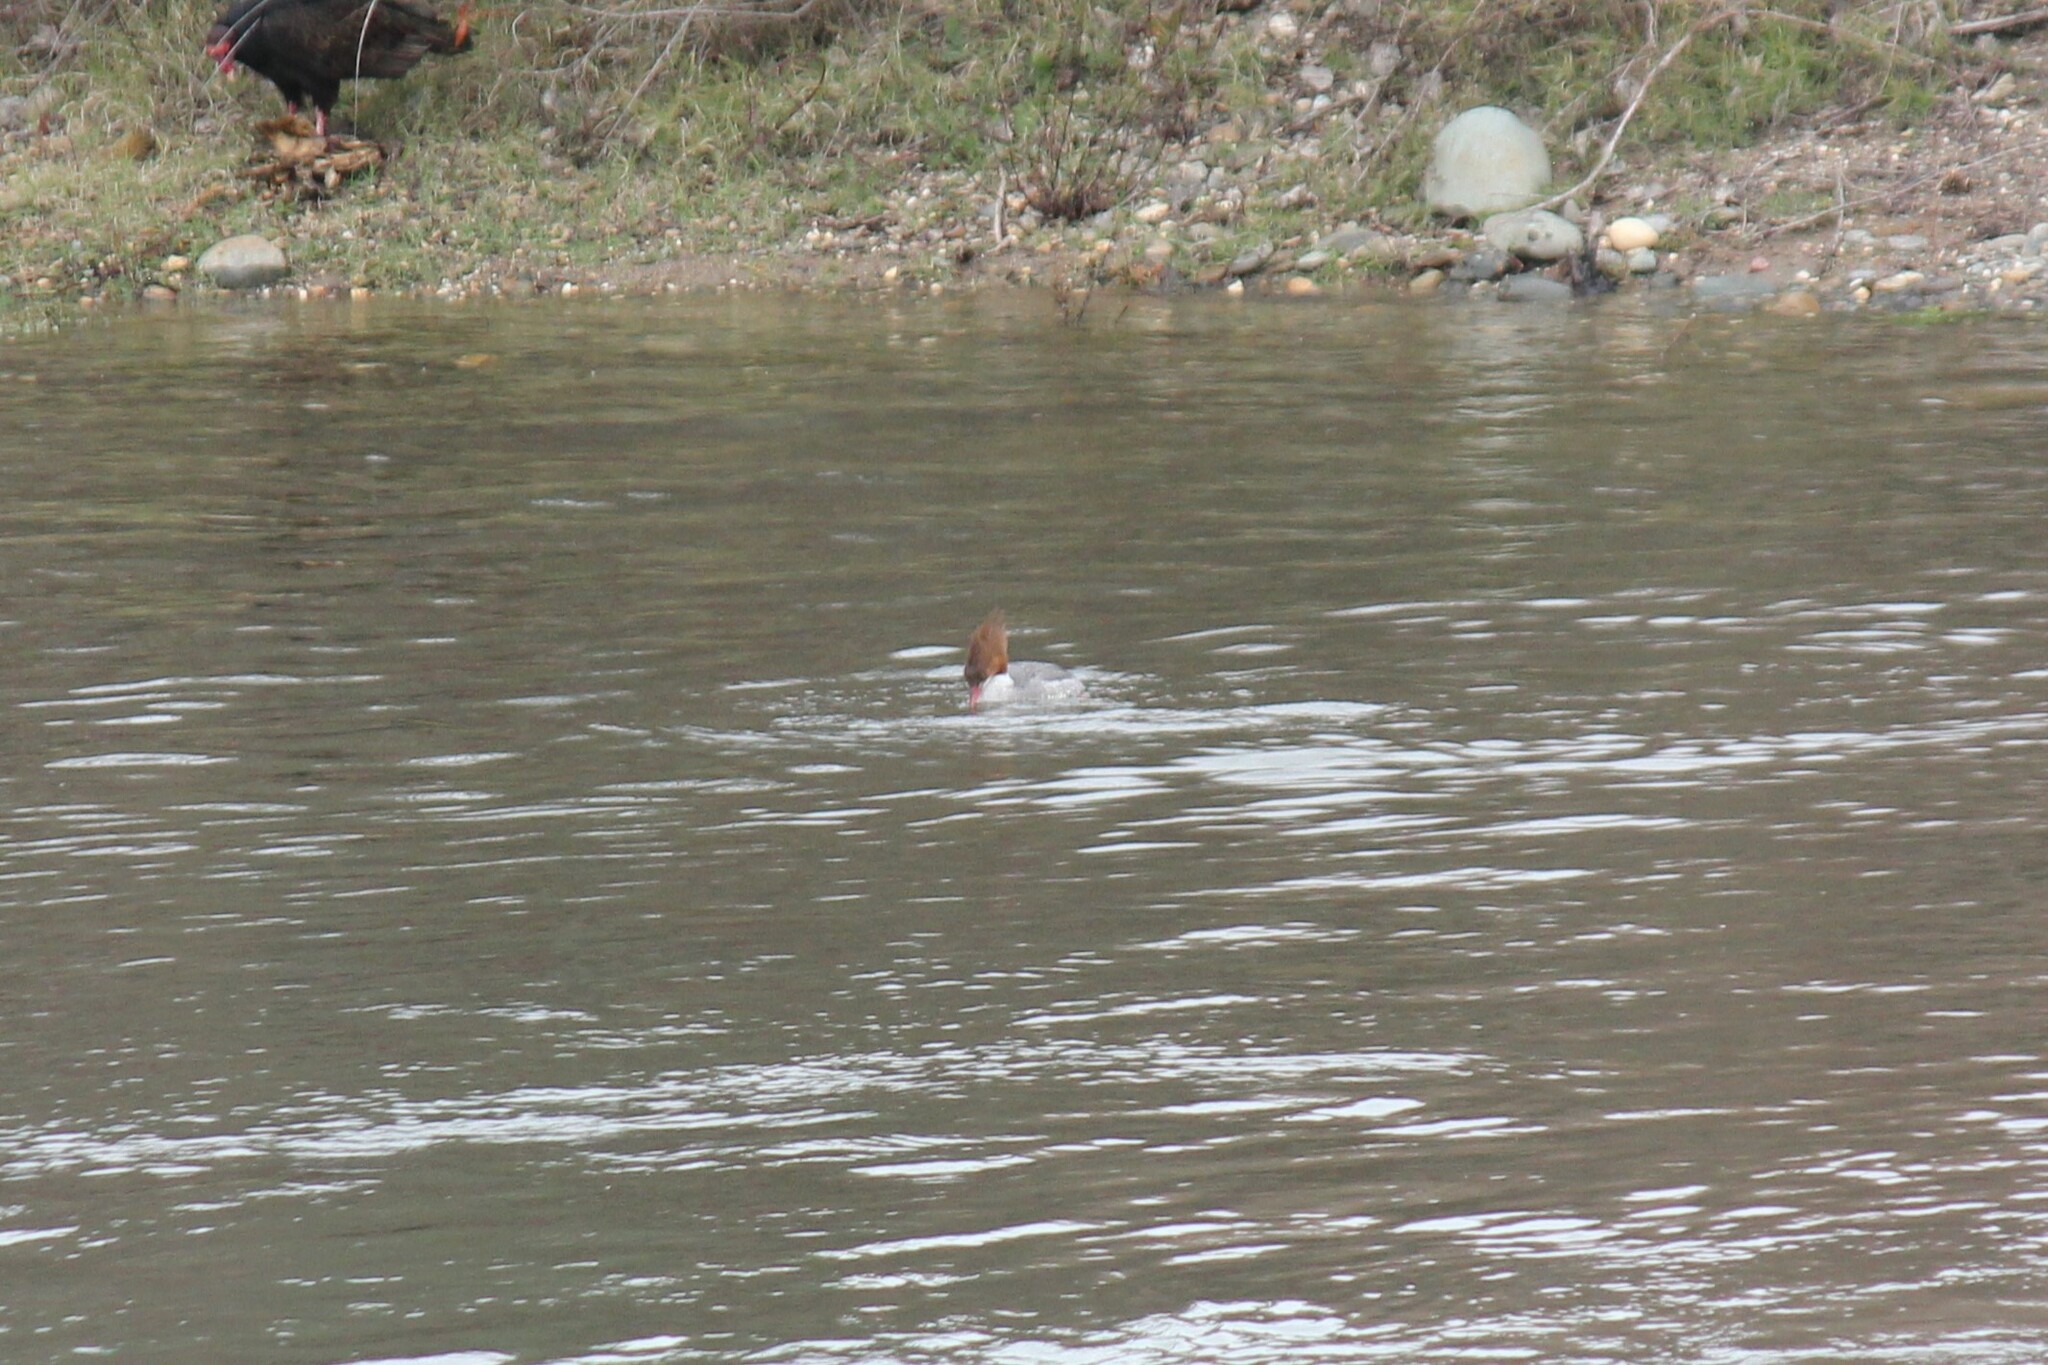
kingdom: Animalia
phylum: Chordata
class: Aves
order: Anseriformes
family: Anatidae
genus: Mergus
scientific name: Mergus merganser
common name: Common merganser
